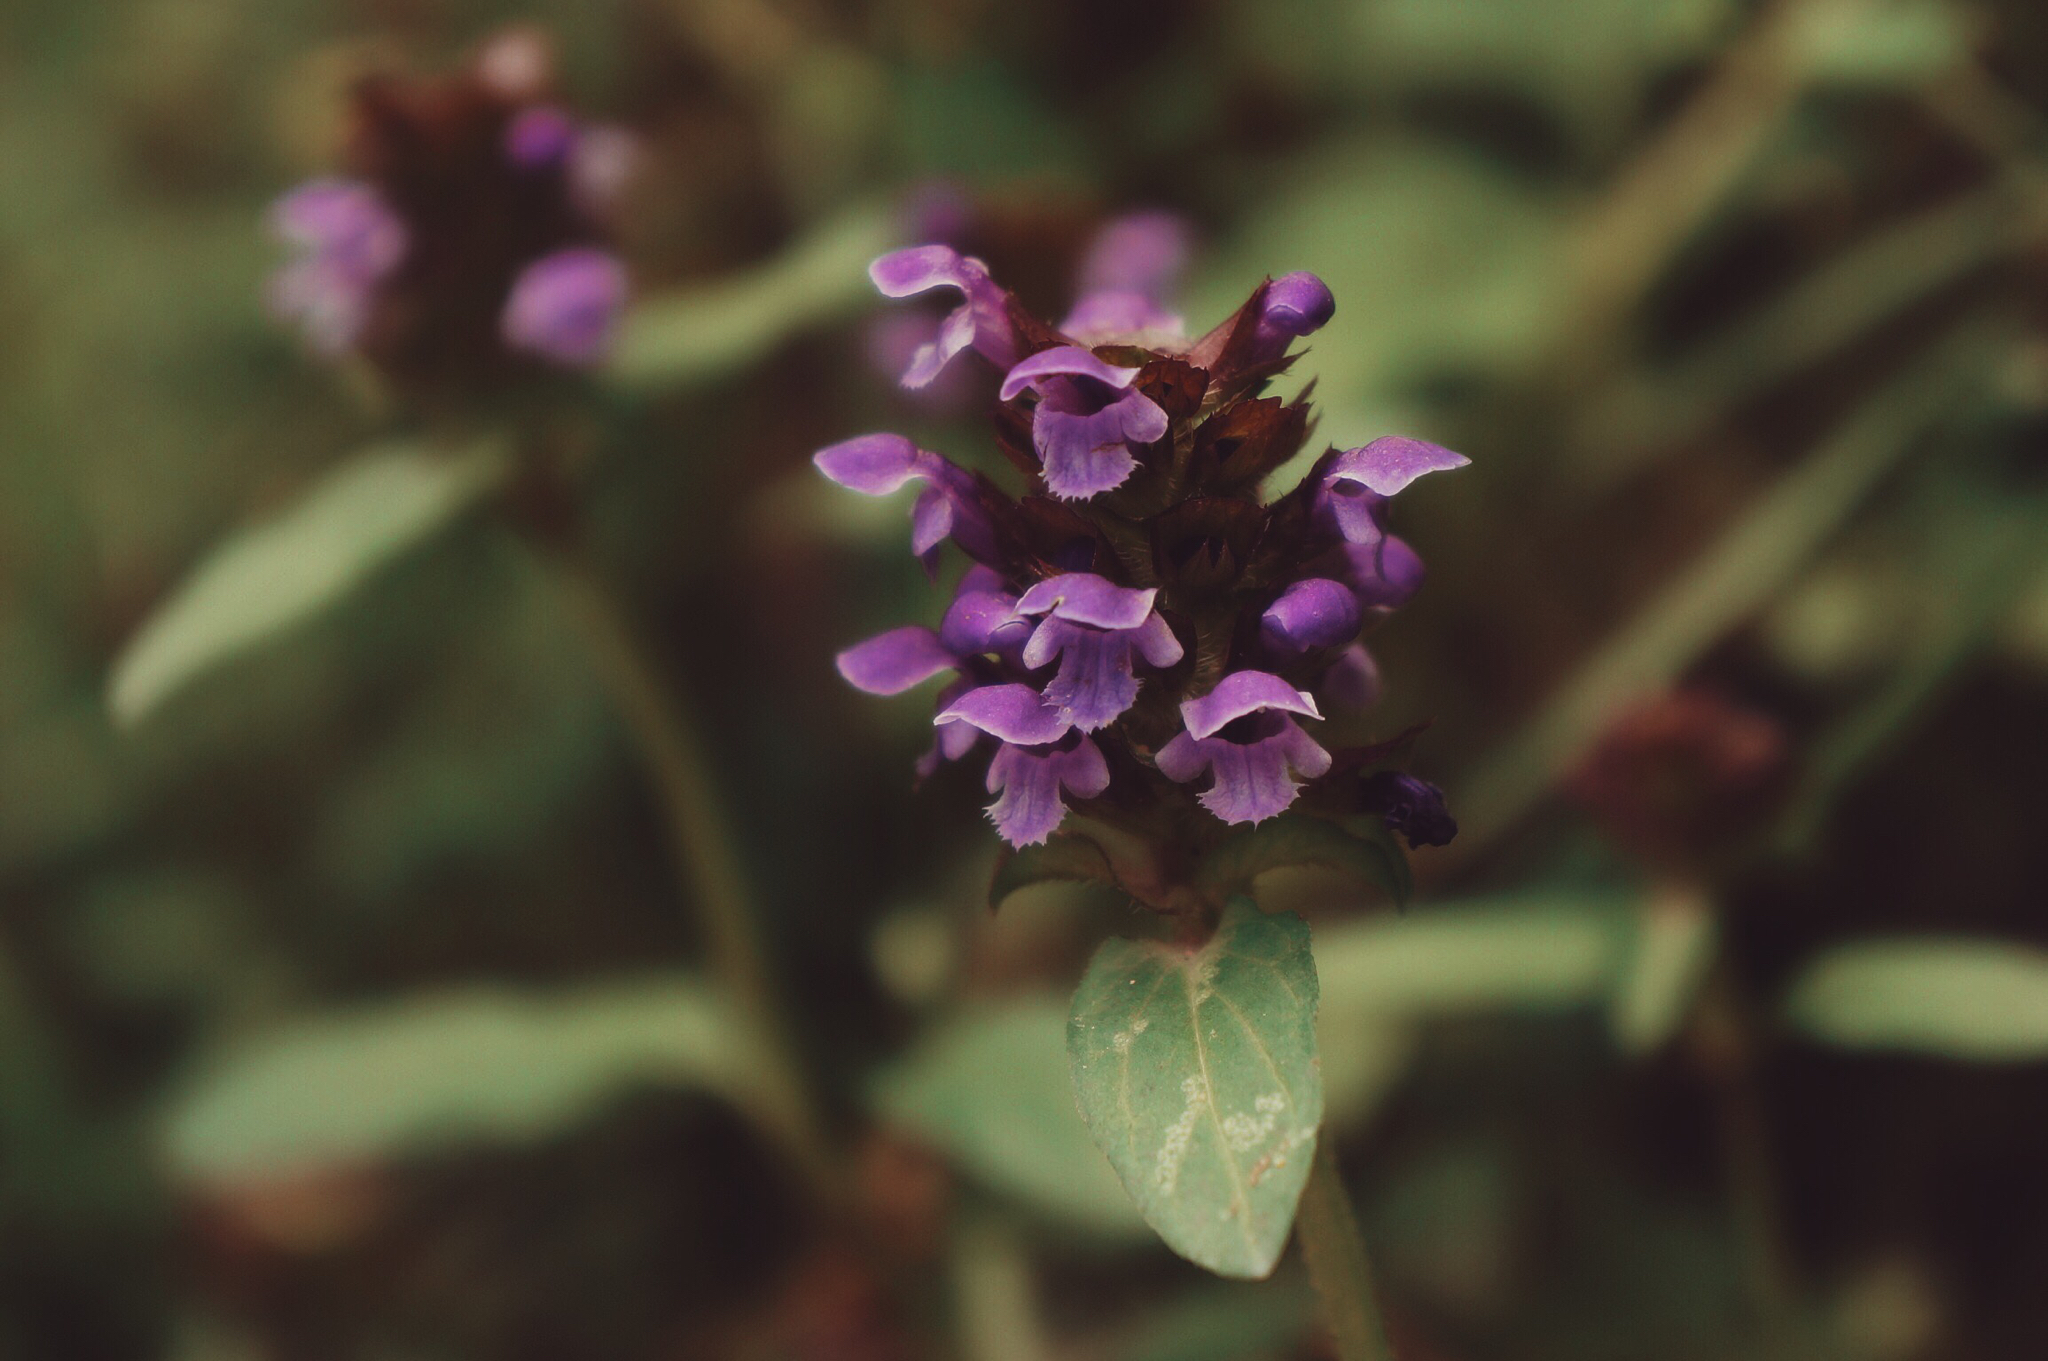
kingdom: Plantae
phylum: Tracheophyta
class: Magnoliopsida
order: Lamiales
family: Lamiaceae
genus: Prunella
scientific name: Prunella vulgaris
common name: Heal-all
